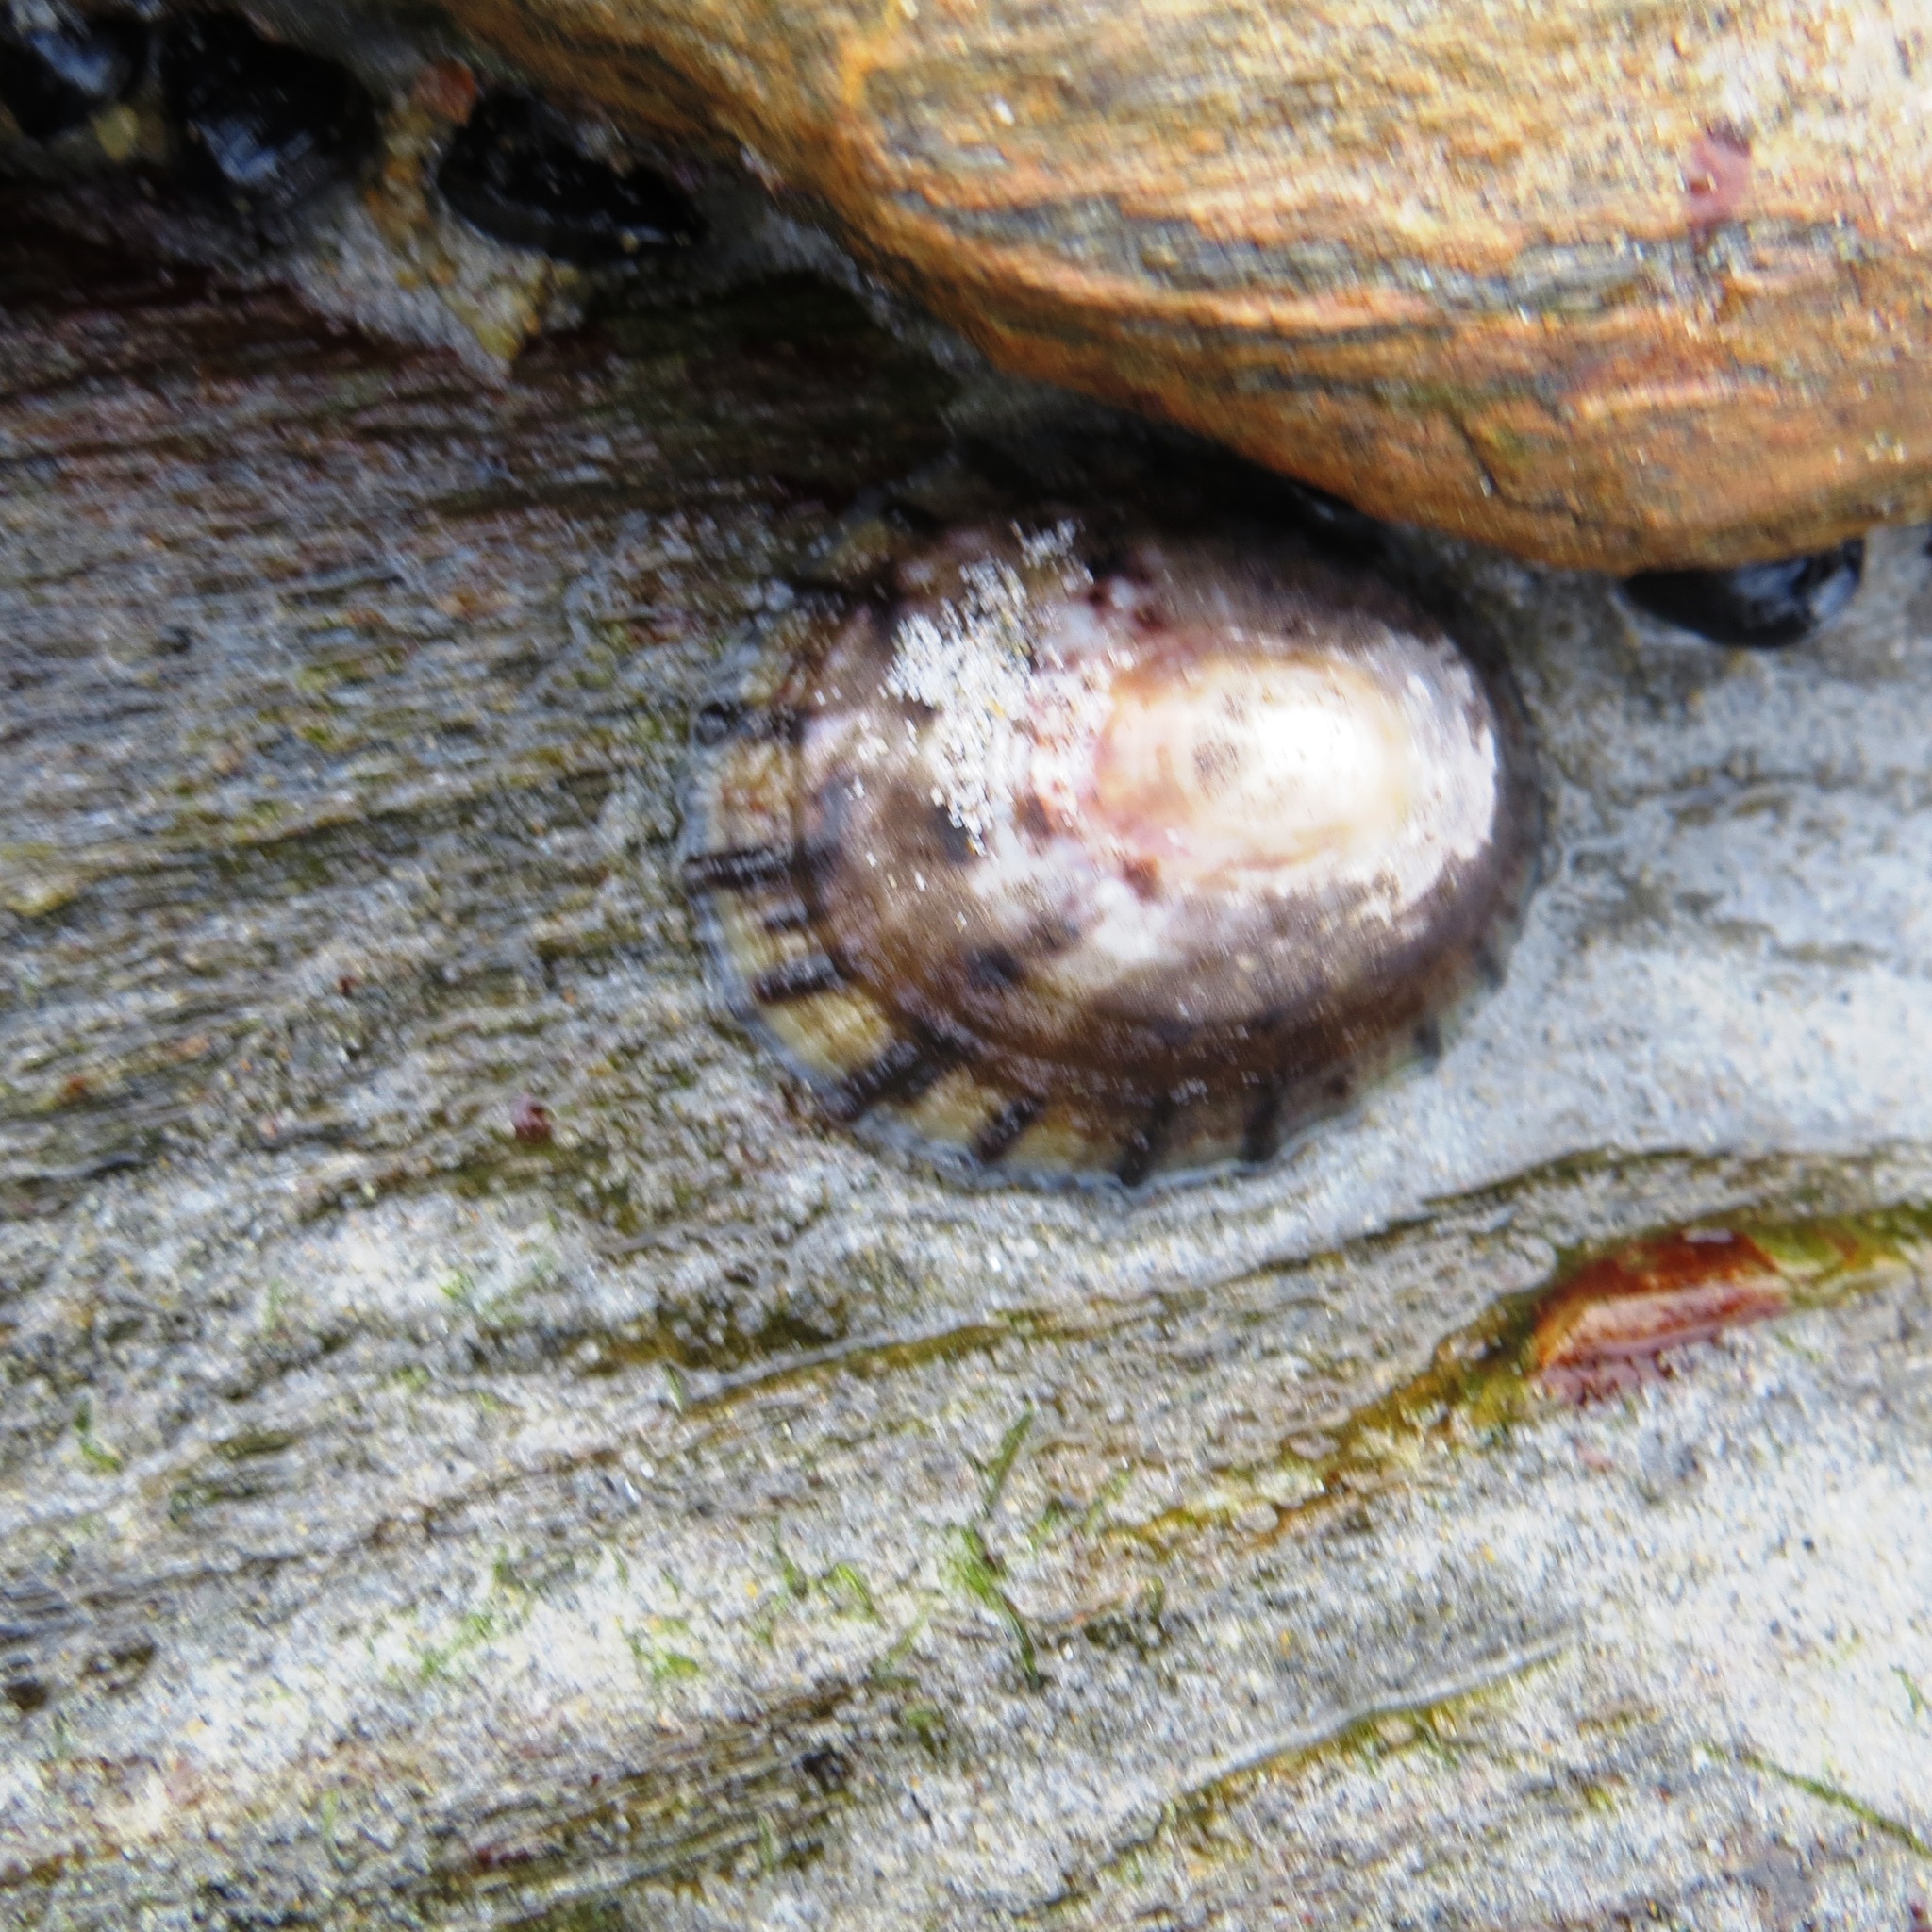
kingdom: Animalia
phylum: Mollusca
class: Gastropoda
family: Nacellidae
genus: Cellana
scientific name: Cellana radians
